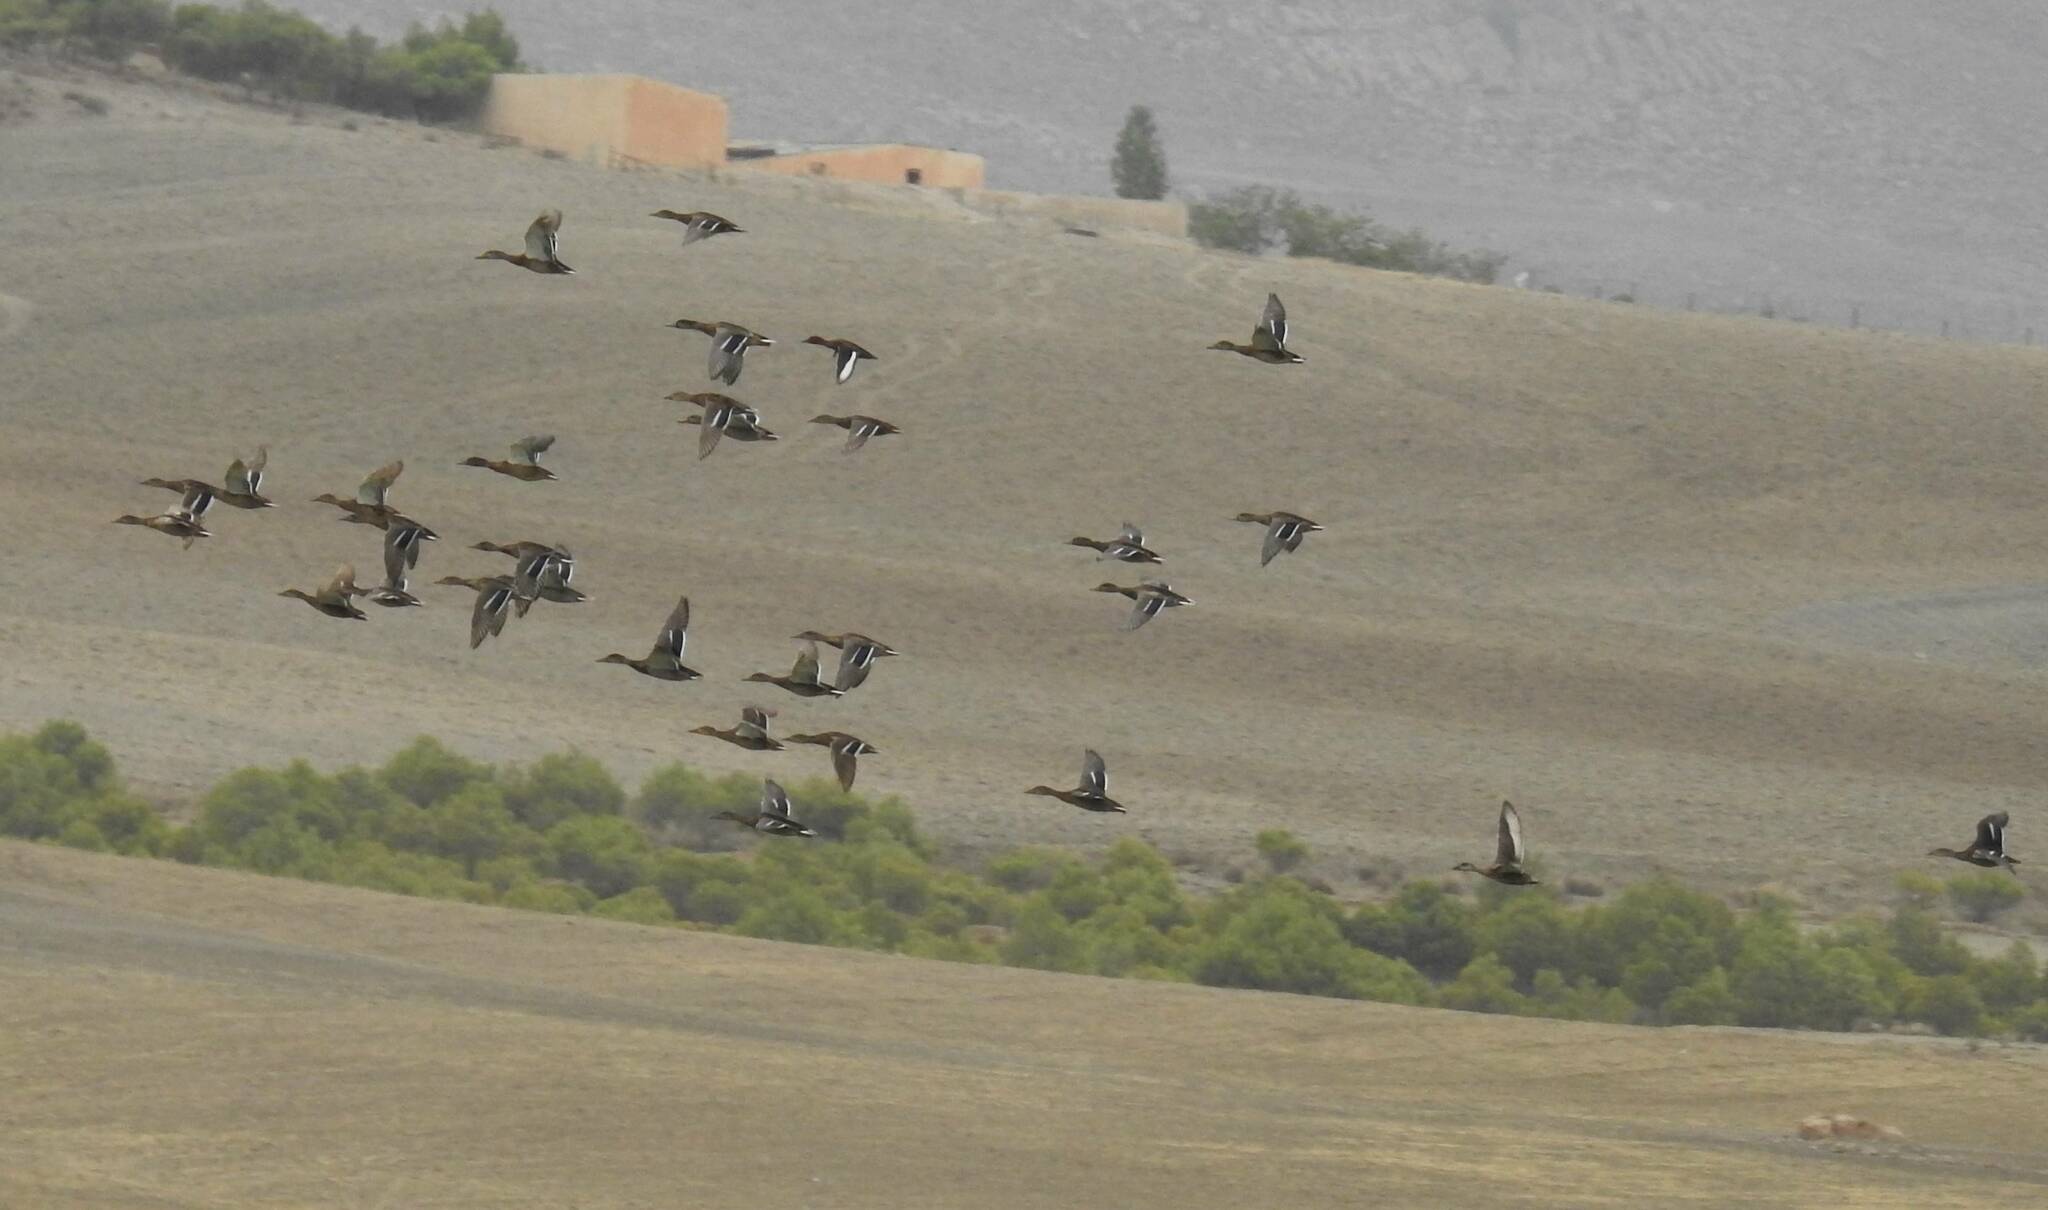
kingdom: Animalia
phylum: Chordata
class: Aves
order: Anseriformes
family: Anatidae
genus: Aythya
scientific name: Aythya nyroca
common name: Ferruginous duck
